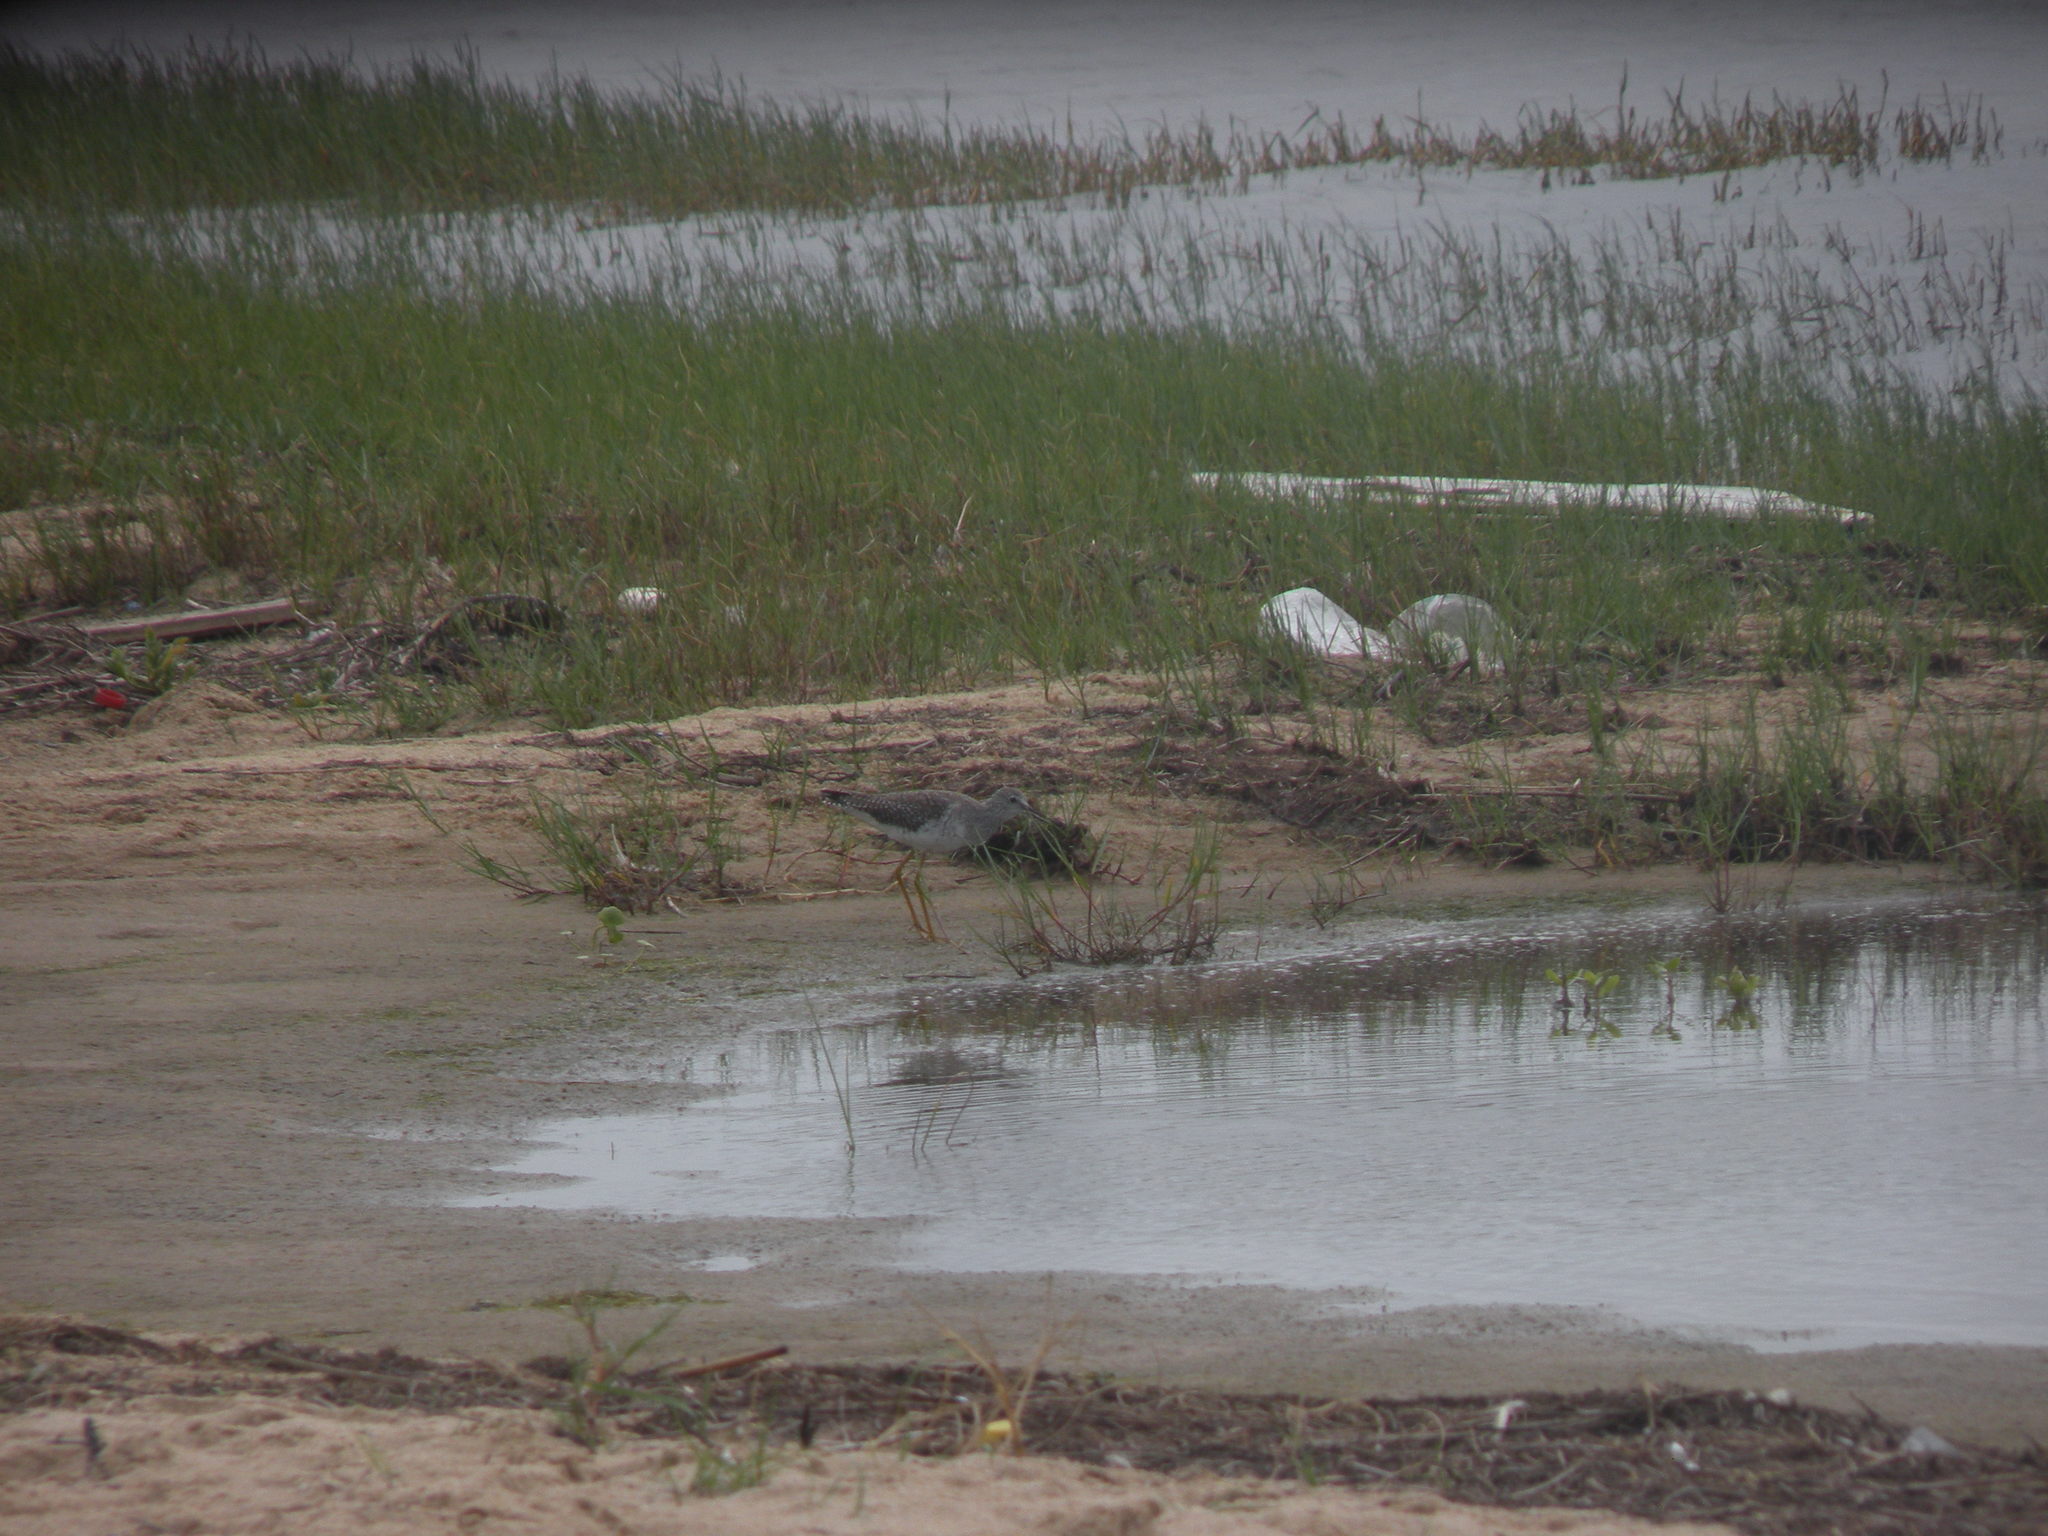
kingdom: Animalia
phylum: Chordata
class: Aves
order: Charadriiformes
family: Scolopacidae
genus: Tringa
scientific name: Tringa melanoleuca
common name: Greater yellowlegs
